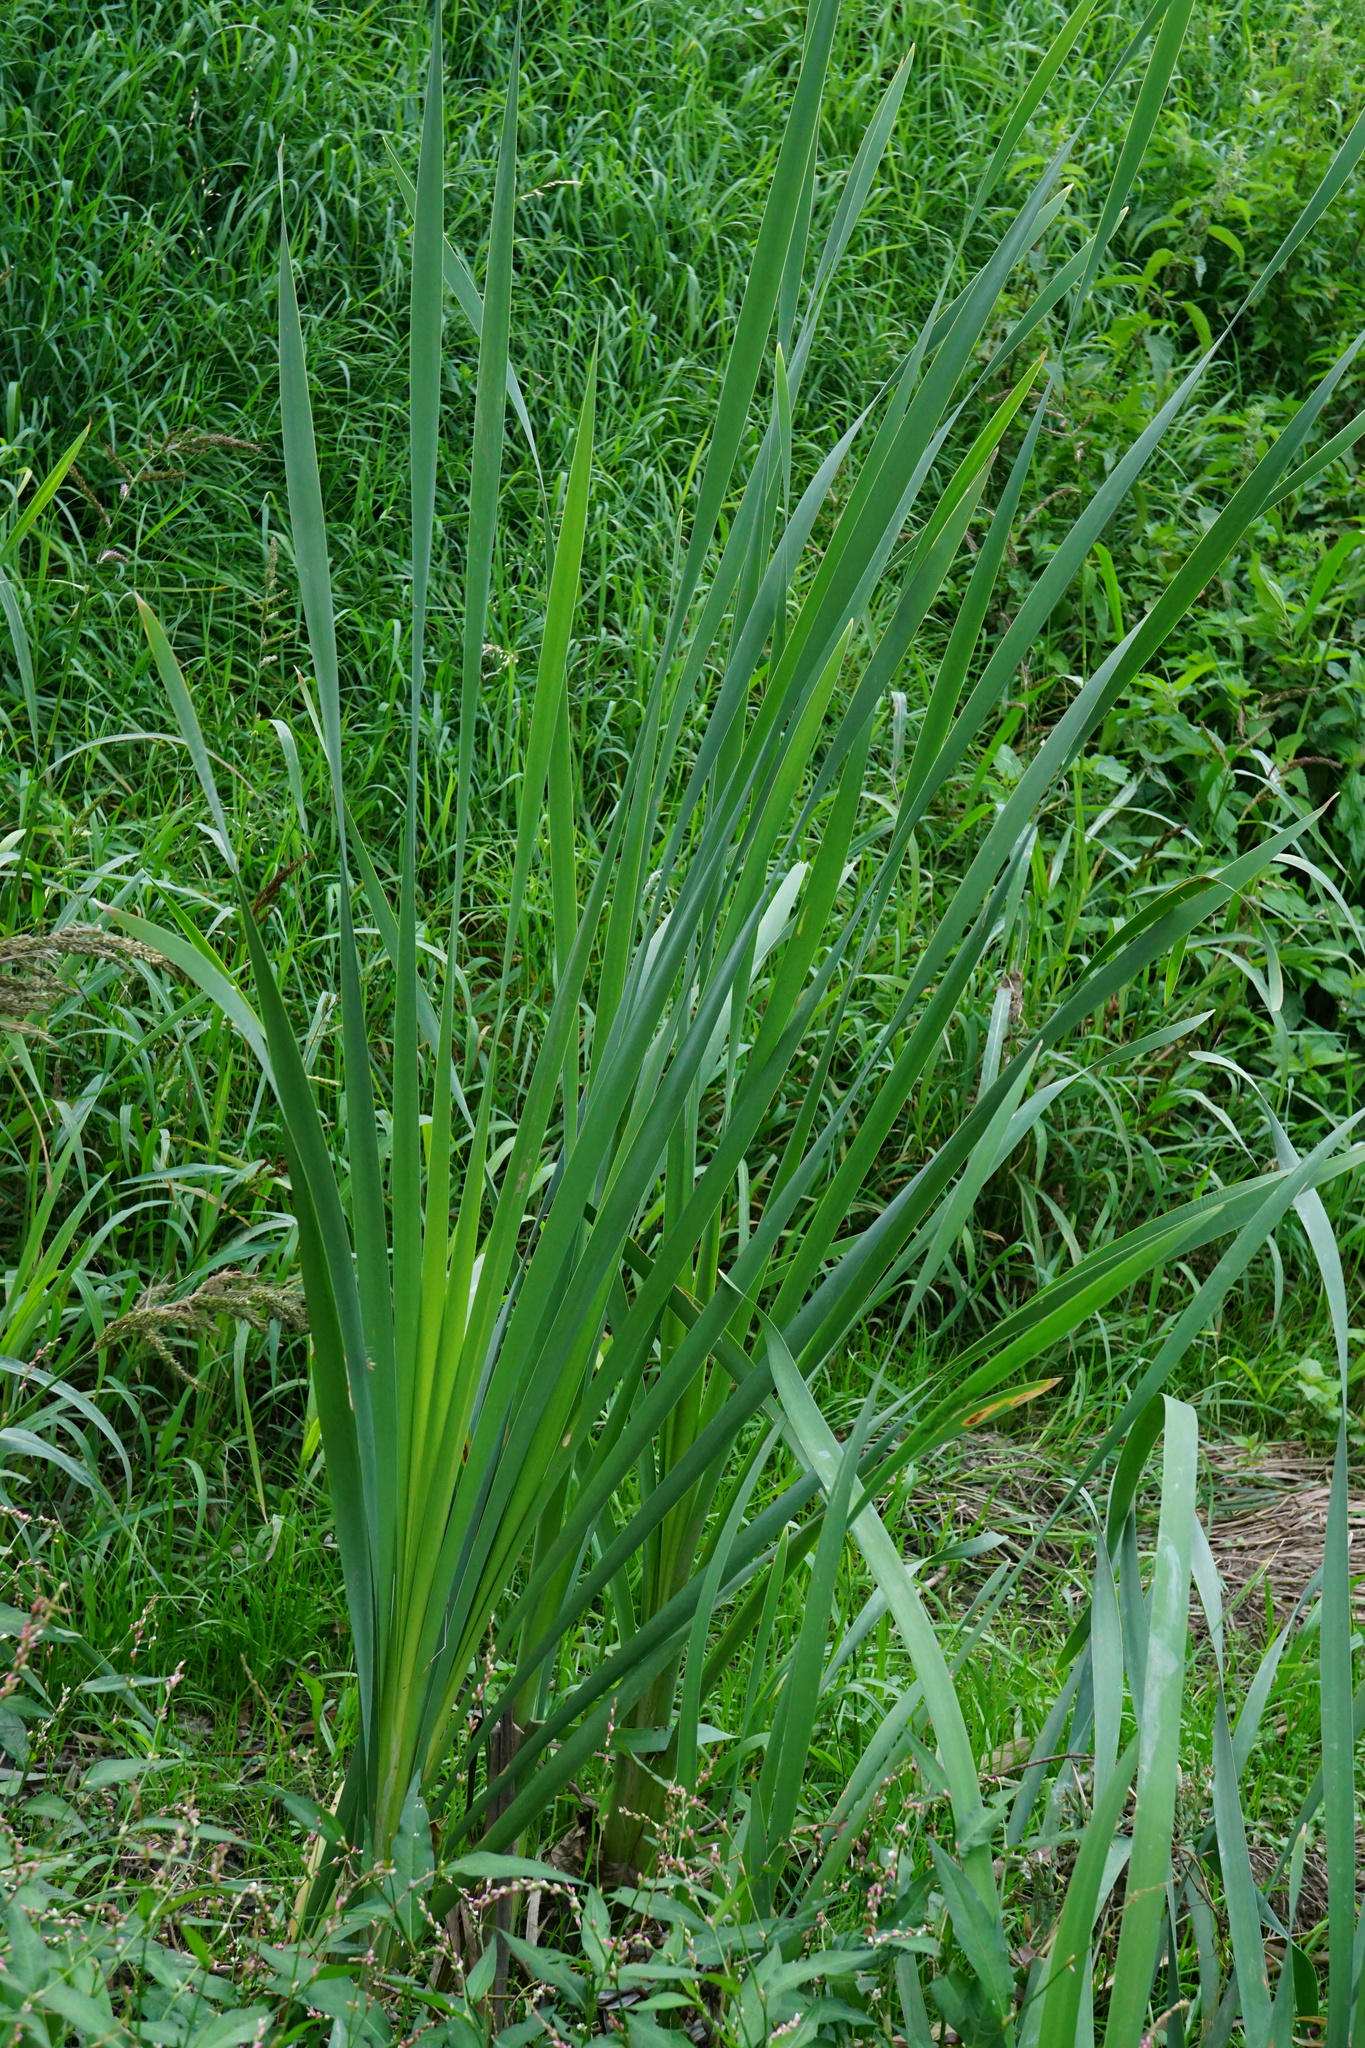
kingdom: Plantae
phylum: Tracheophyta
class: Liliopsida
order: Poales
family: Typhaceae
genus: Typha
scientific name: Typha latifolia
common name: Broadleaf cattail
